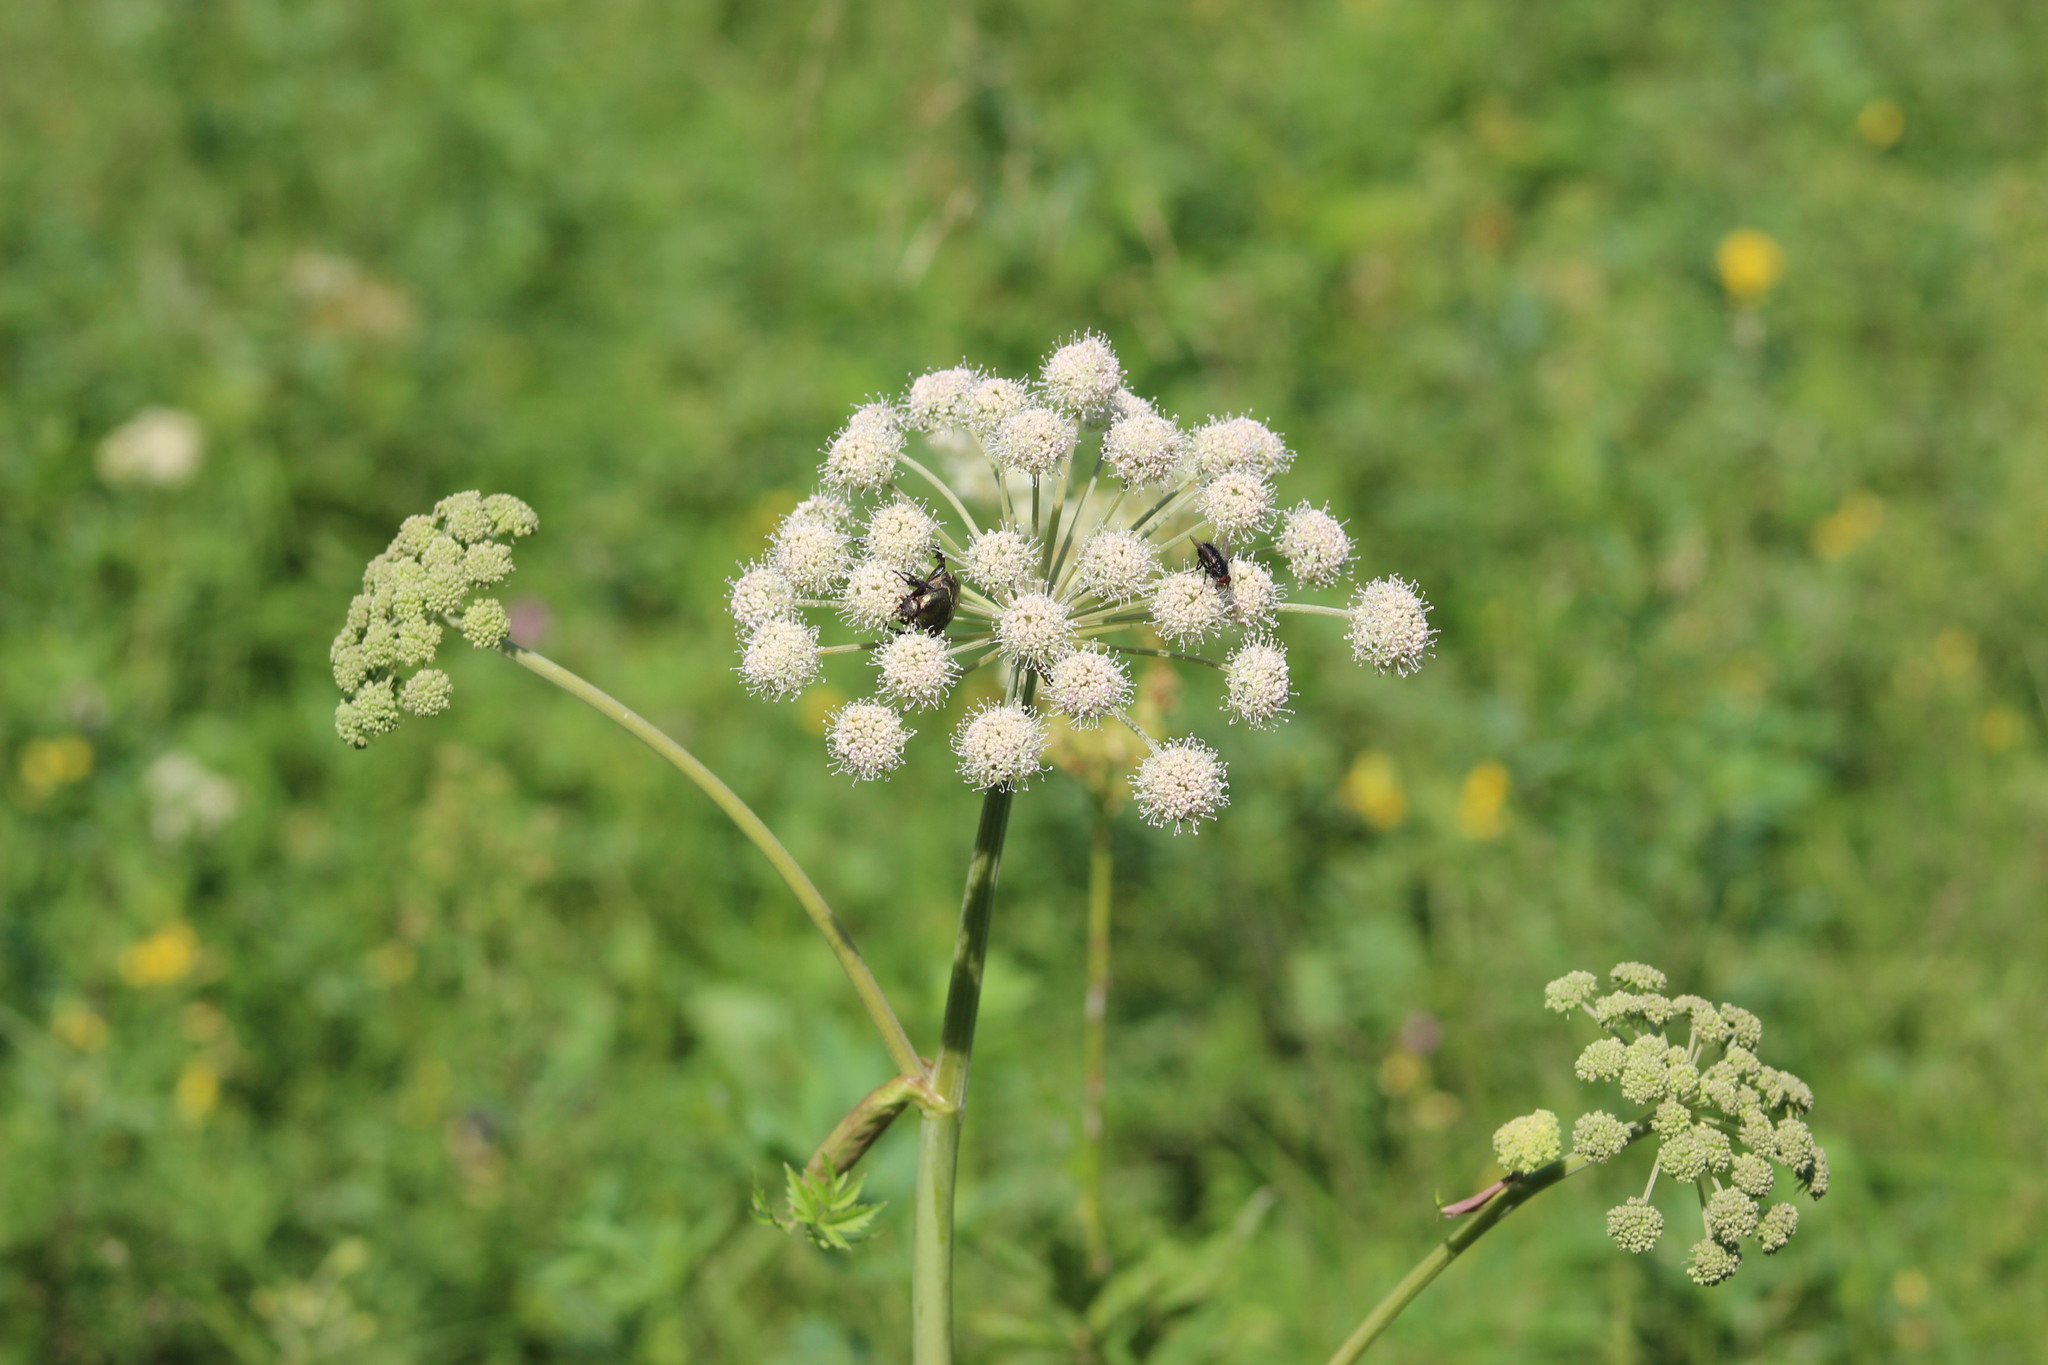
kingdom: Plantae
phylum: Tracheophyta
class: Magnoliopsida
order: Apiales
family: Apiaceae
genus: Angelica
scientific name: Angelica sylvestris
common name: Wild angelica
